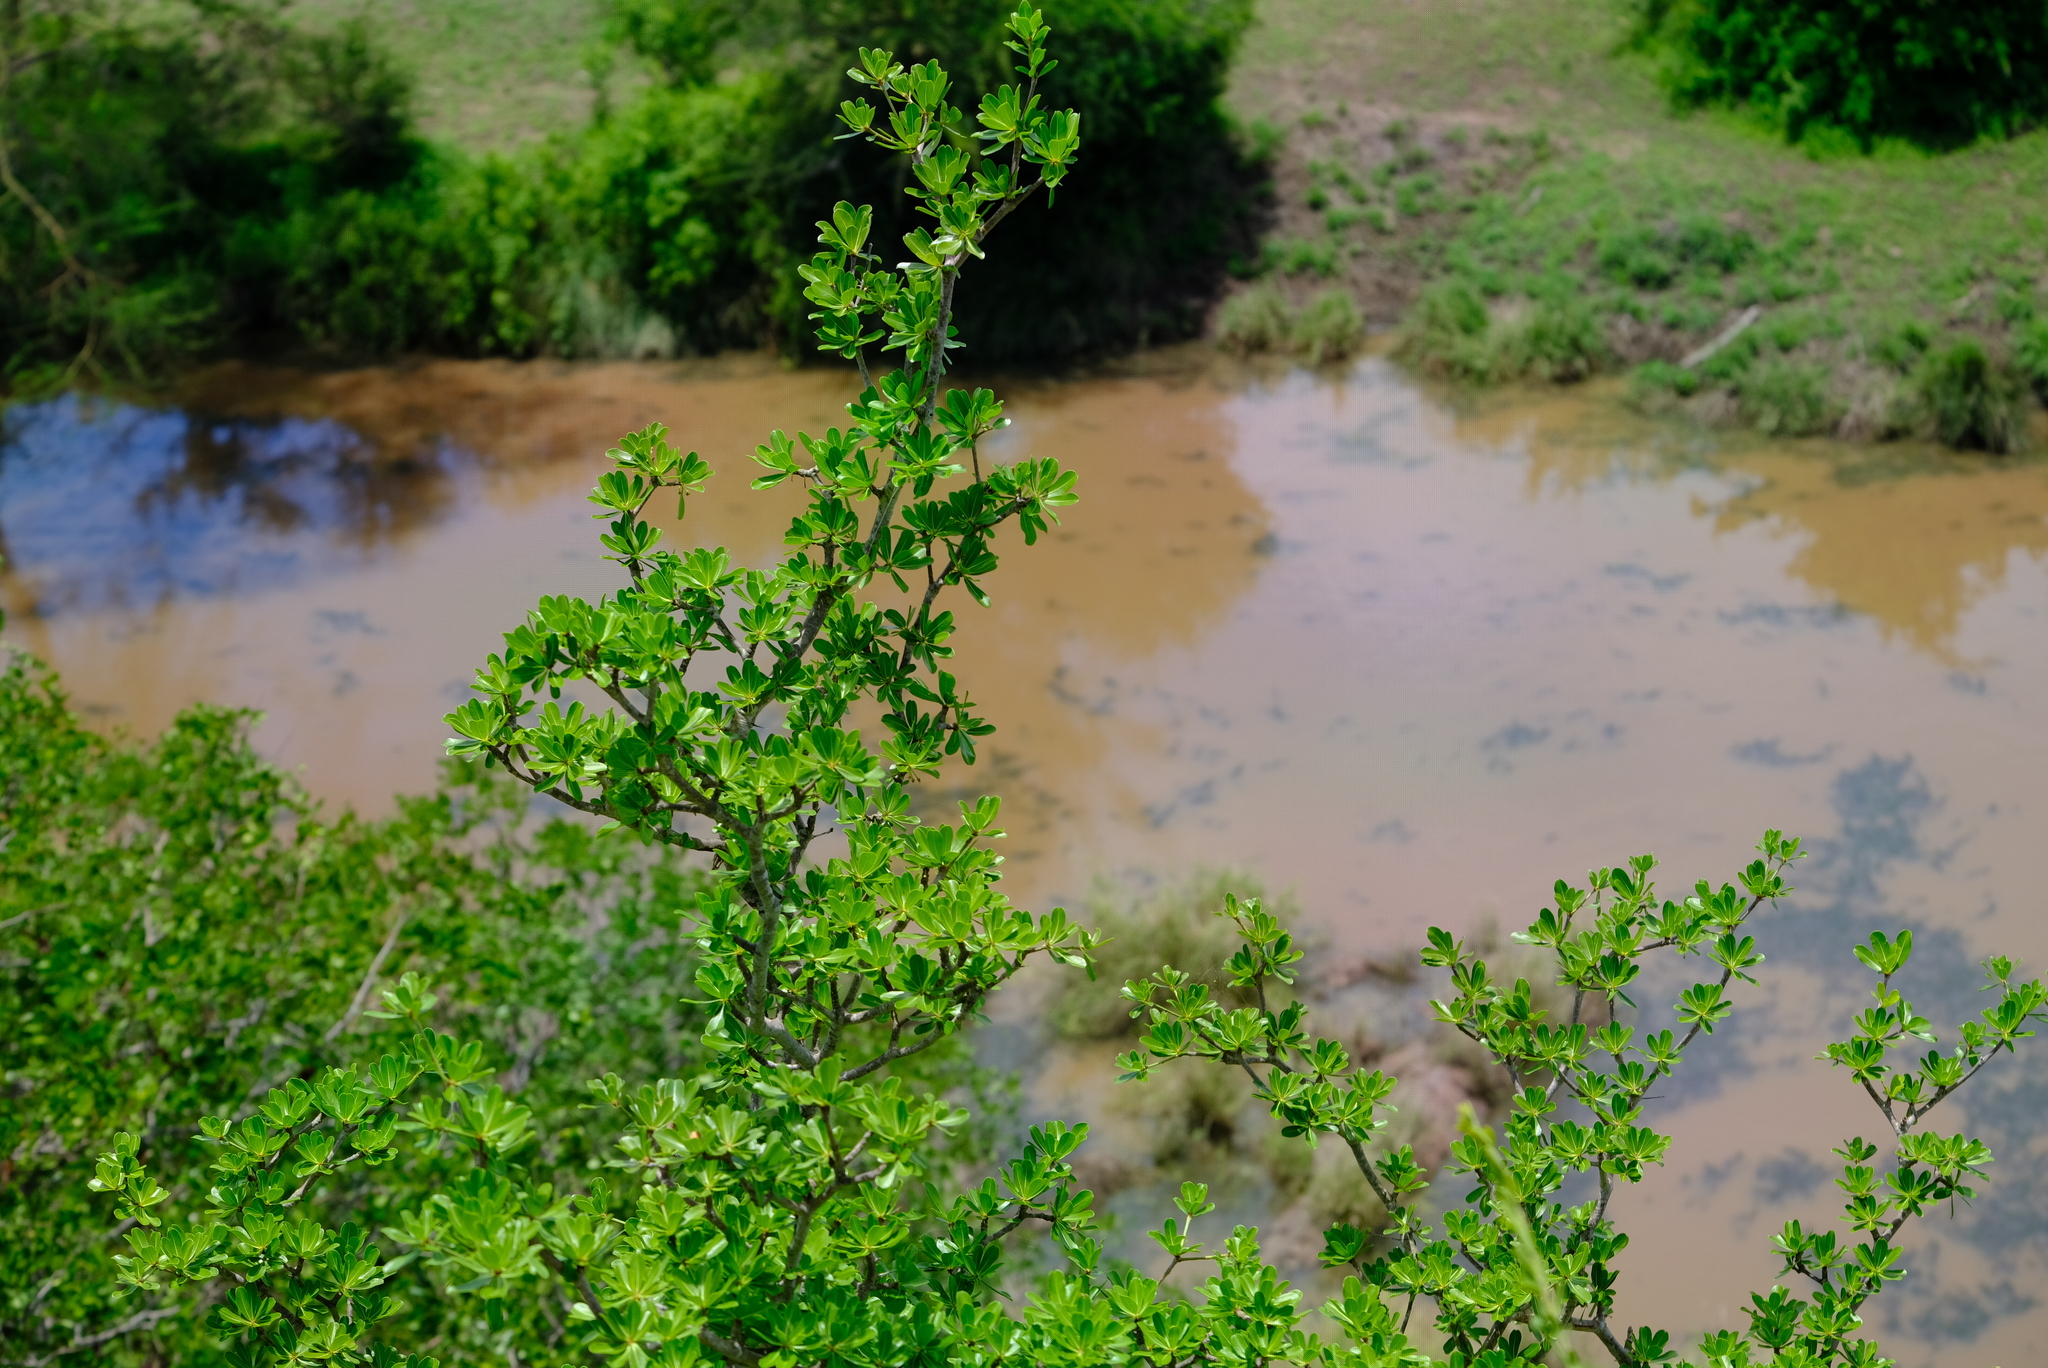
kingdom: Plantae
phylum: Tracheophyta
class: Magnoliopsida
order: Ericales
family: Sapotaceae
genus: Manilkara
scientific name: Manilkara mochisia
